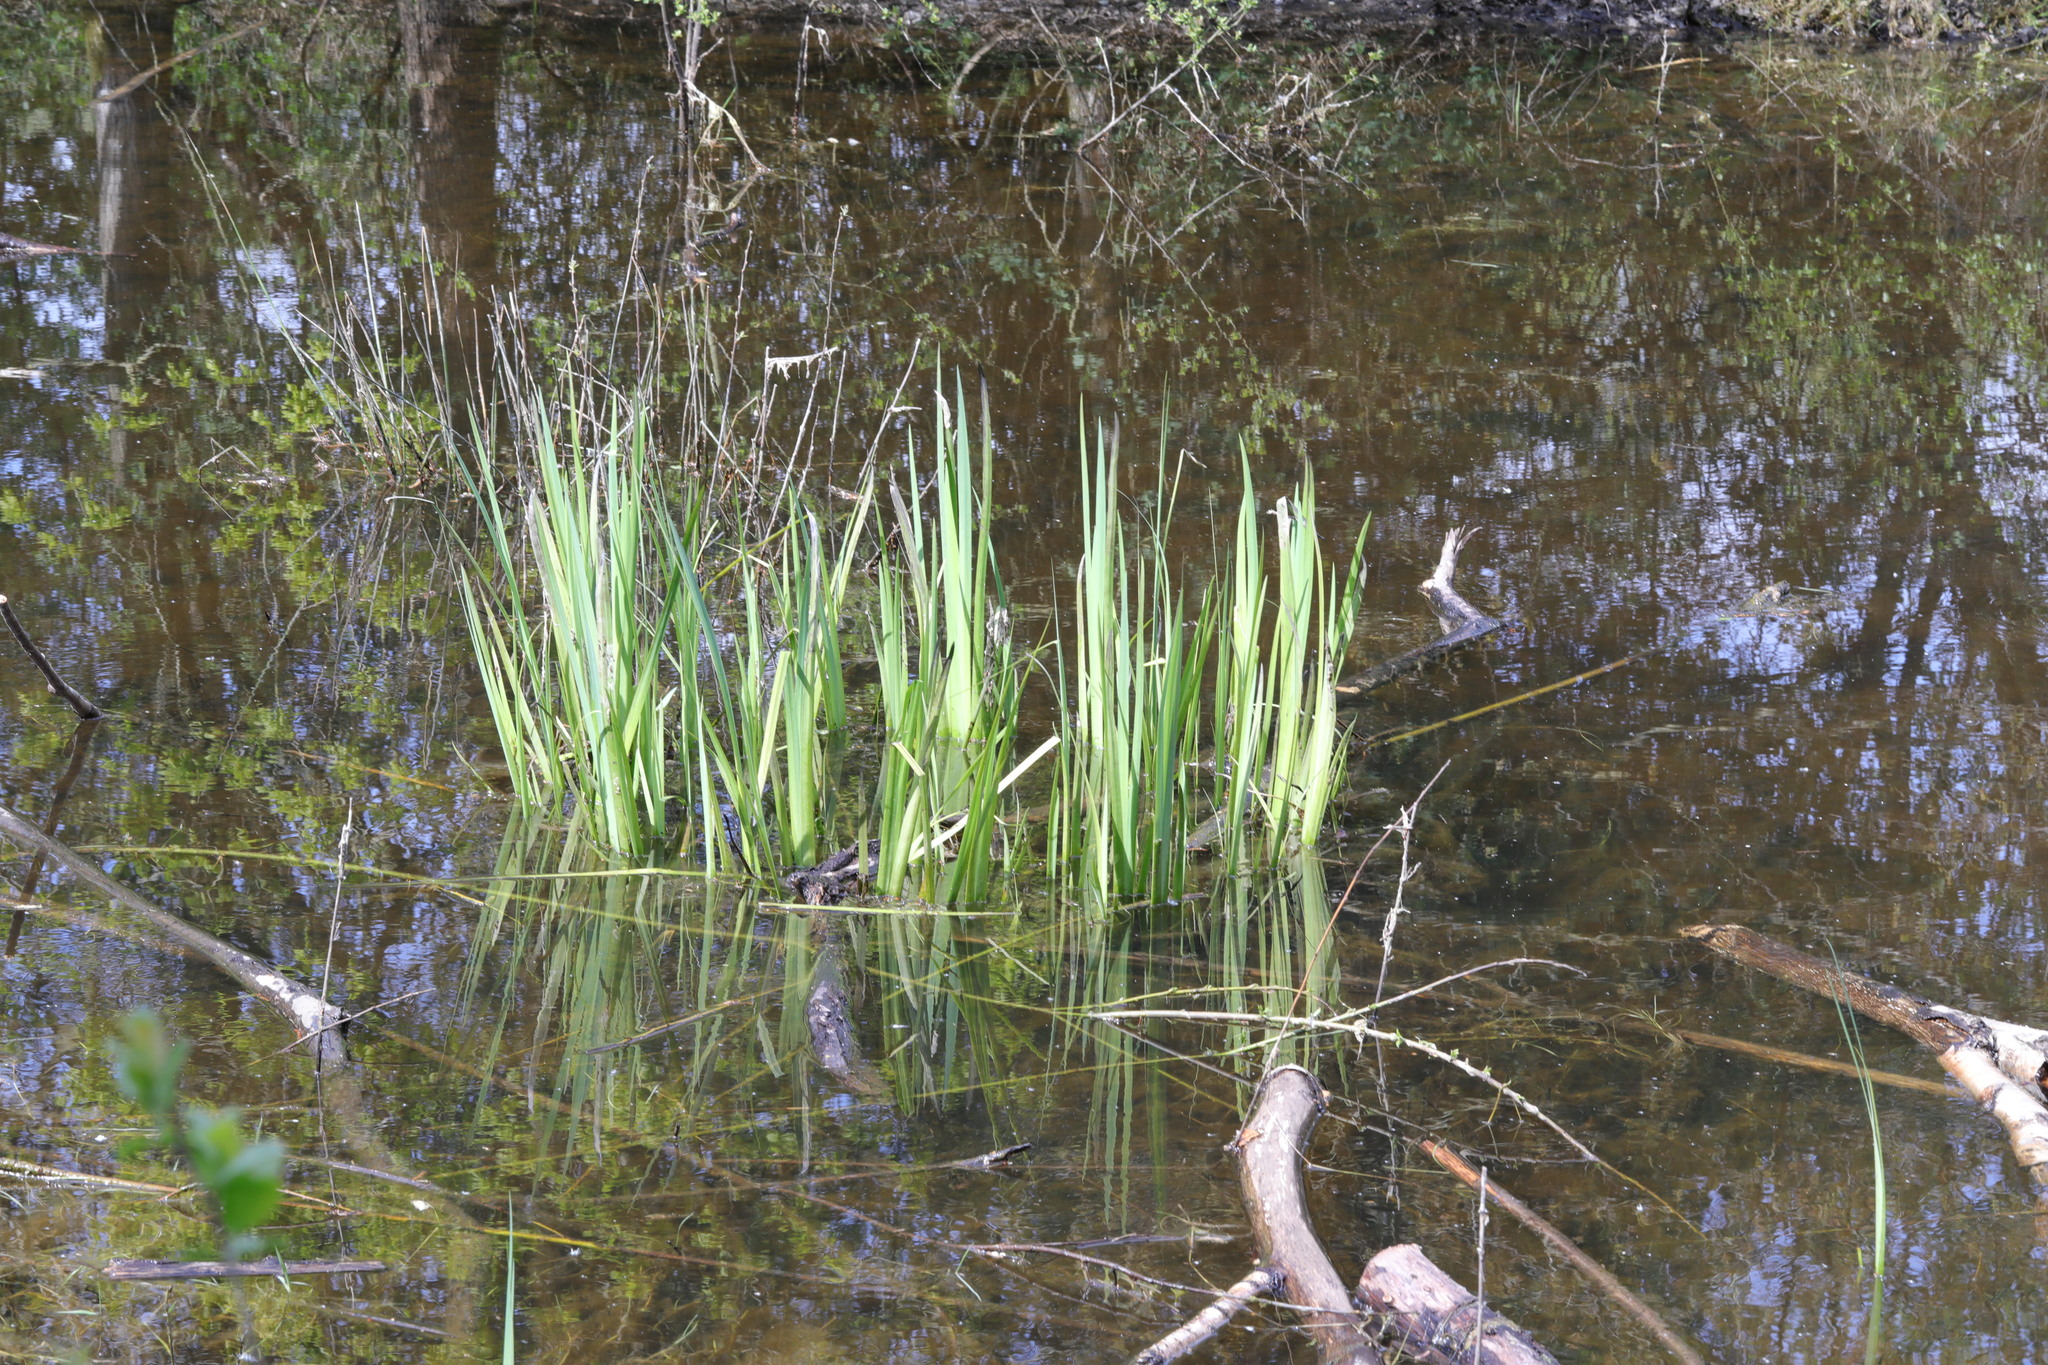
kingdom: Plantae
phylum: Tracheophyta
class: Liliopsida
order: Asparagales
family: Iridaceae
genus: Iris
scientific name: Iris pseudacorus
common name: Yellow flag
